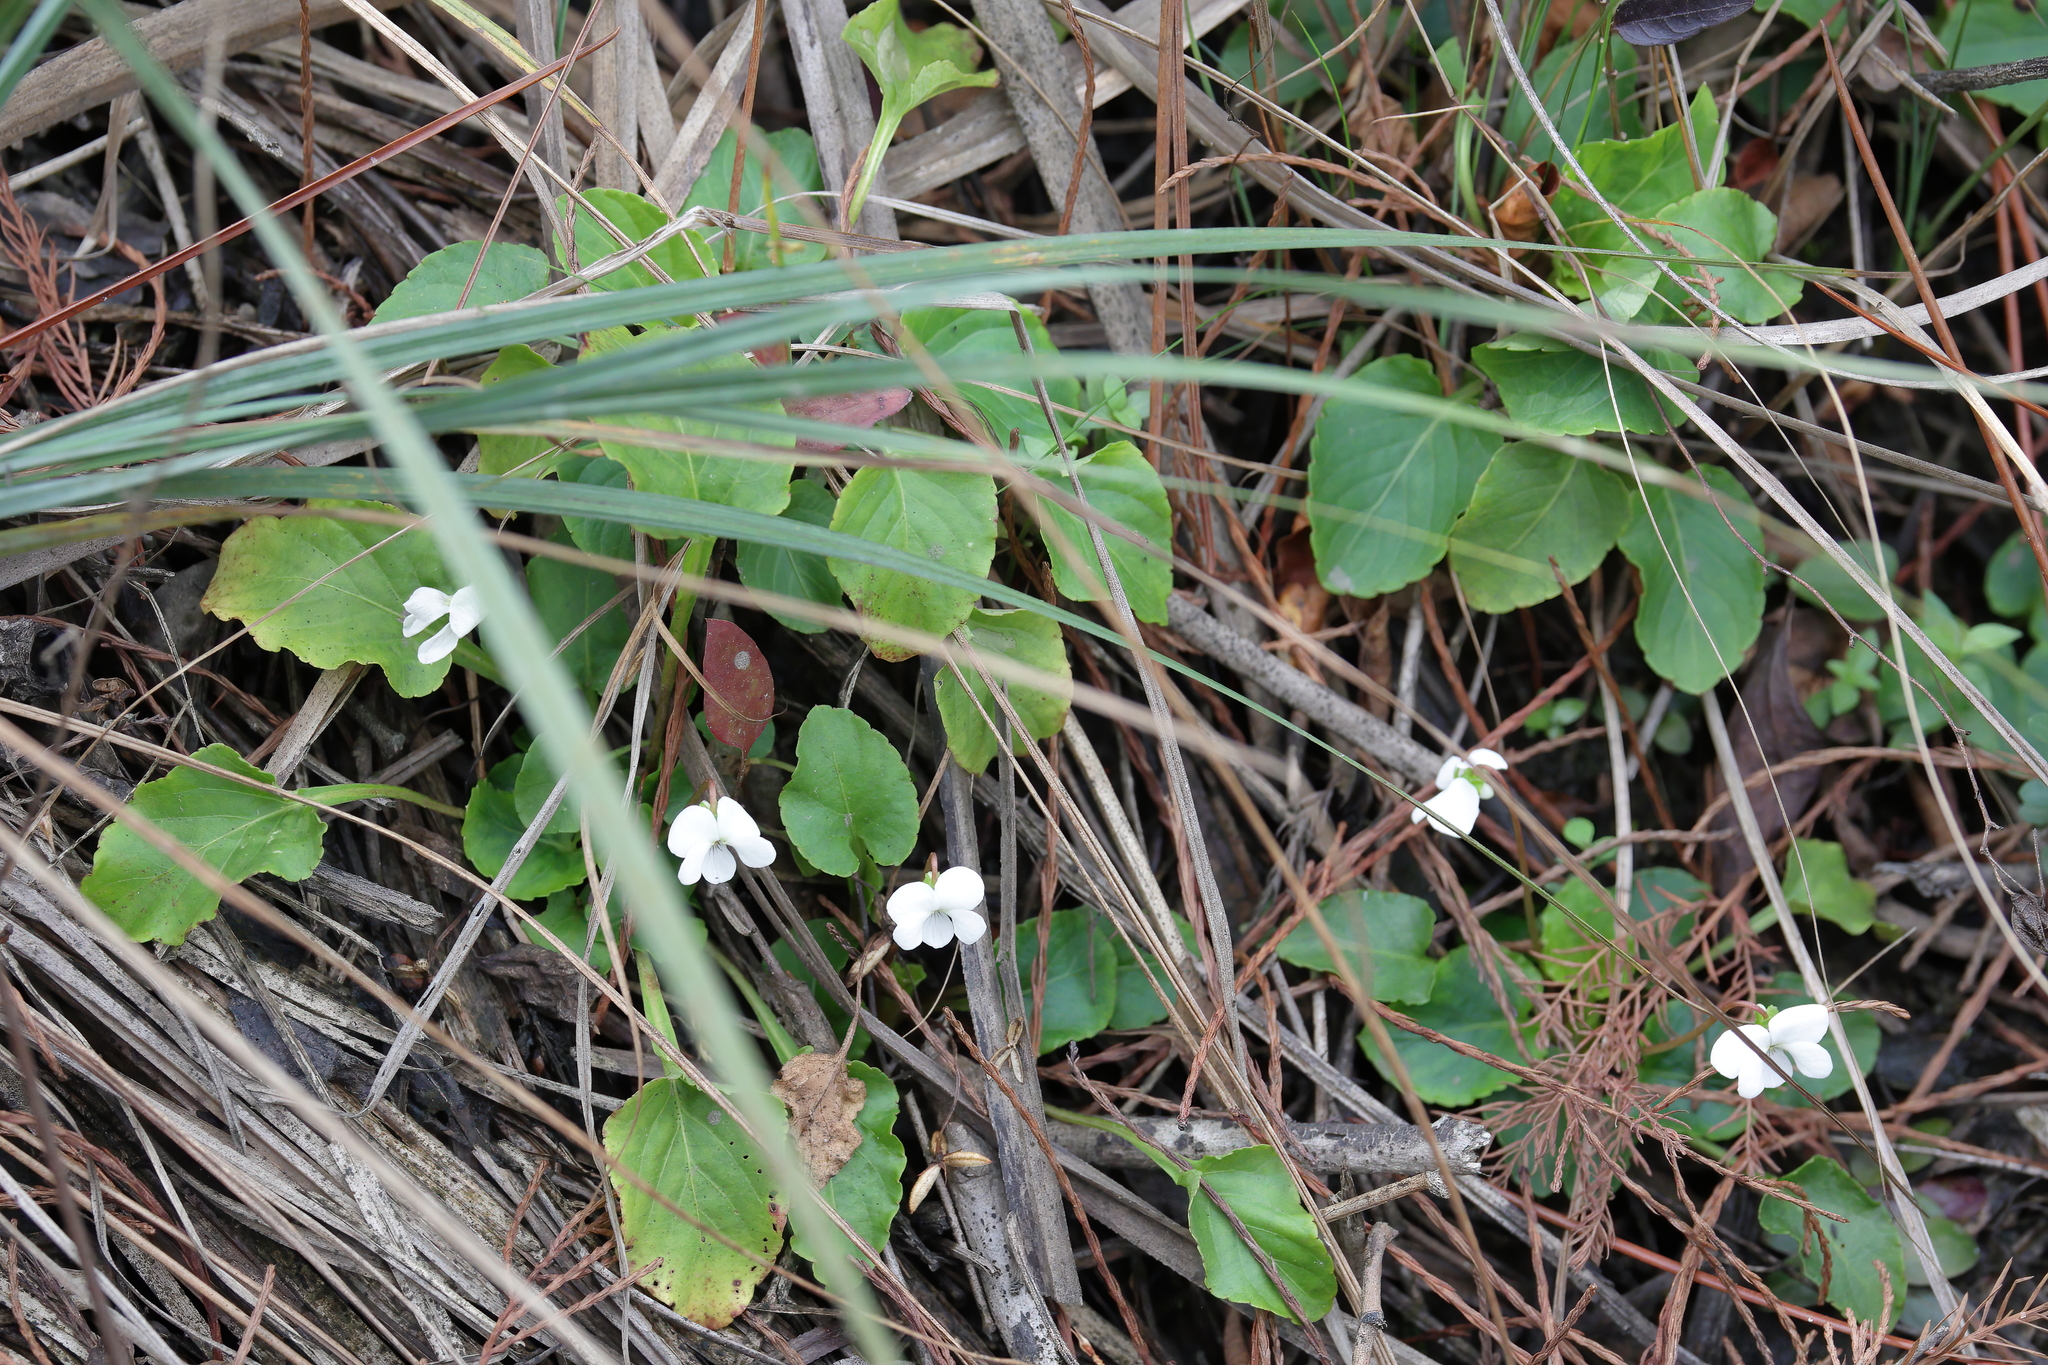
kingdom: Plantae
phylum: Tracheophyta
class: Magnoliopsida
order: Malpighiales
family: Violaceae
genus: Viola
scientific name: Viola primulifolia
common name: Primrose-leaf violet
